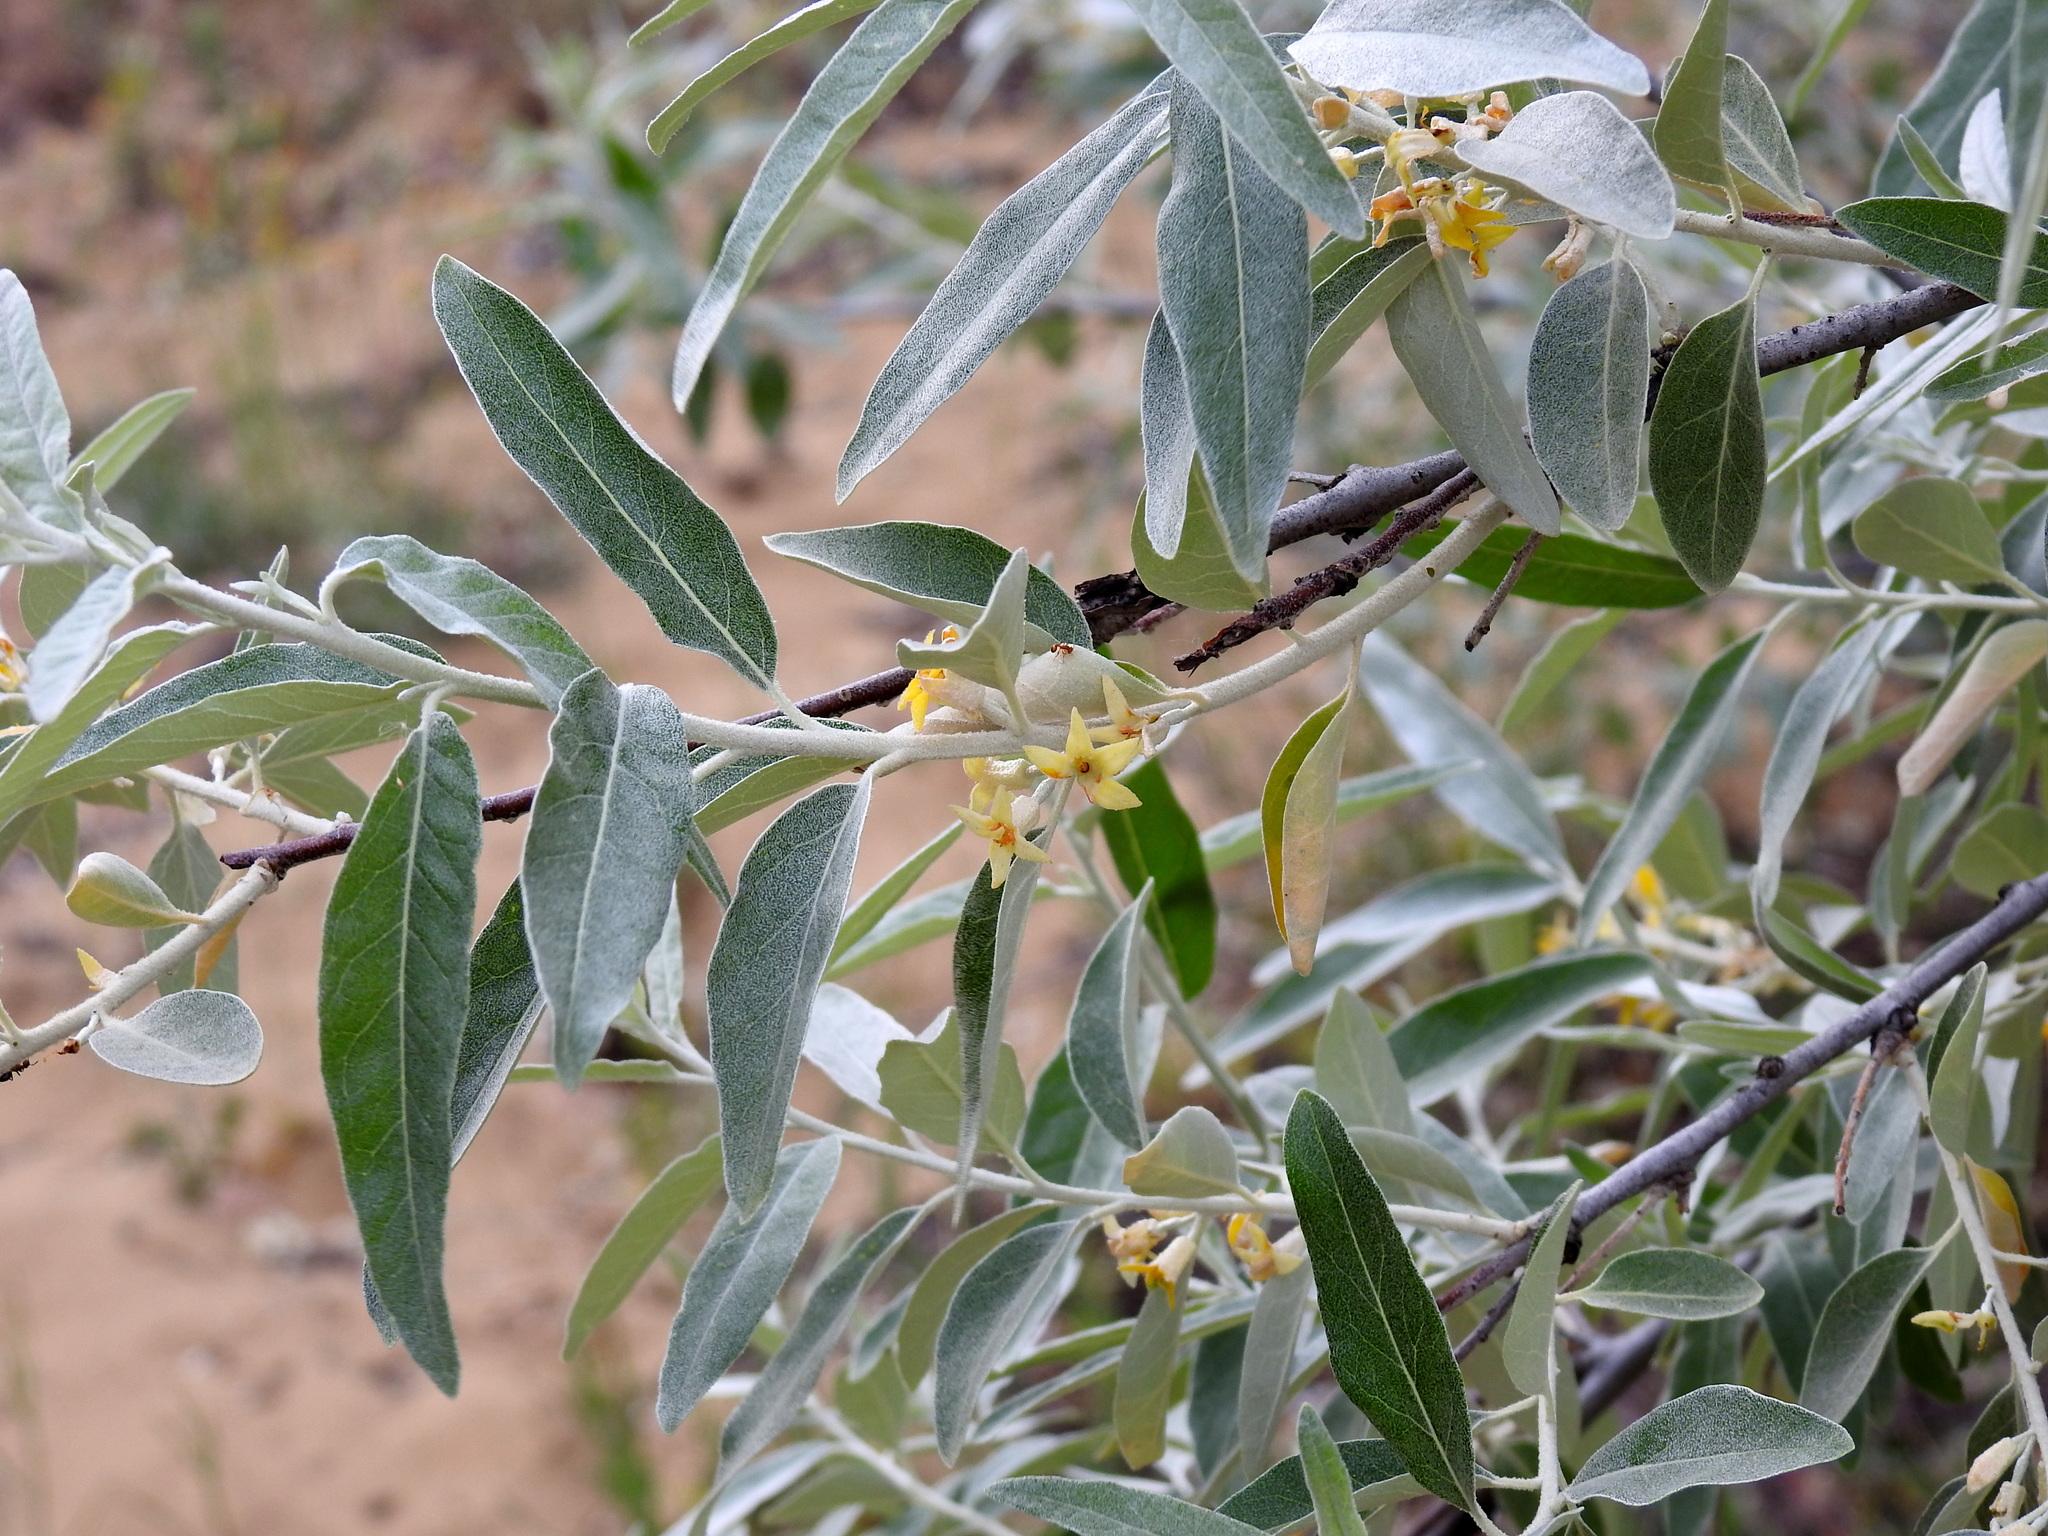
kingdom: Plantae
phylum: Tracheophyta
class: Magnoliopsida
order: Rosales
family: Elaeagnaceae
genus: Elaeagnus
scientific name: Elaeagnus angustifolia
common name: Russian olive
